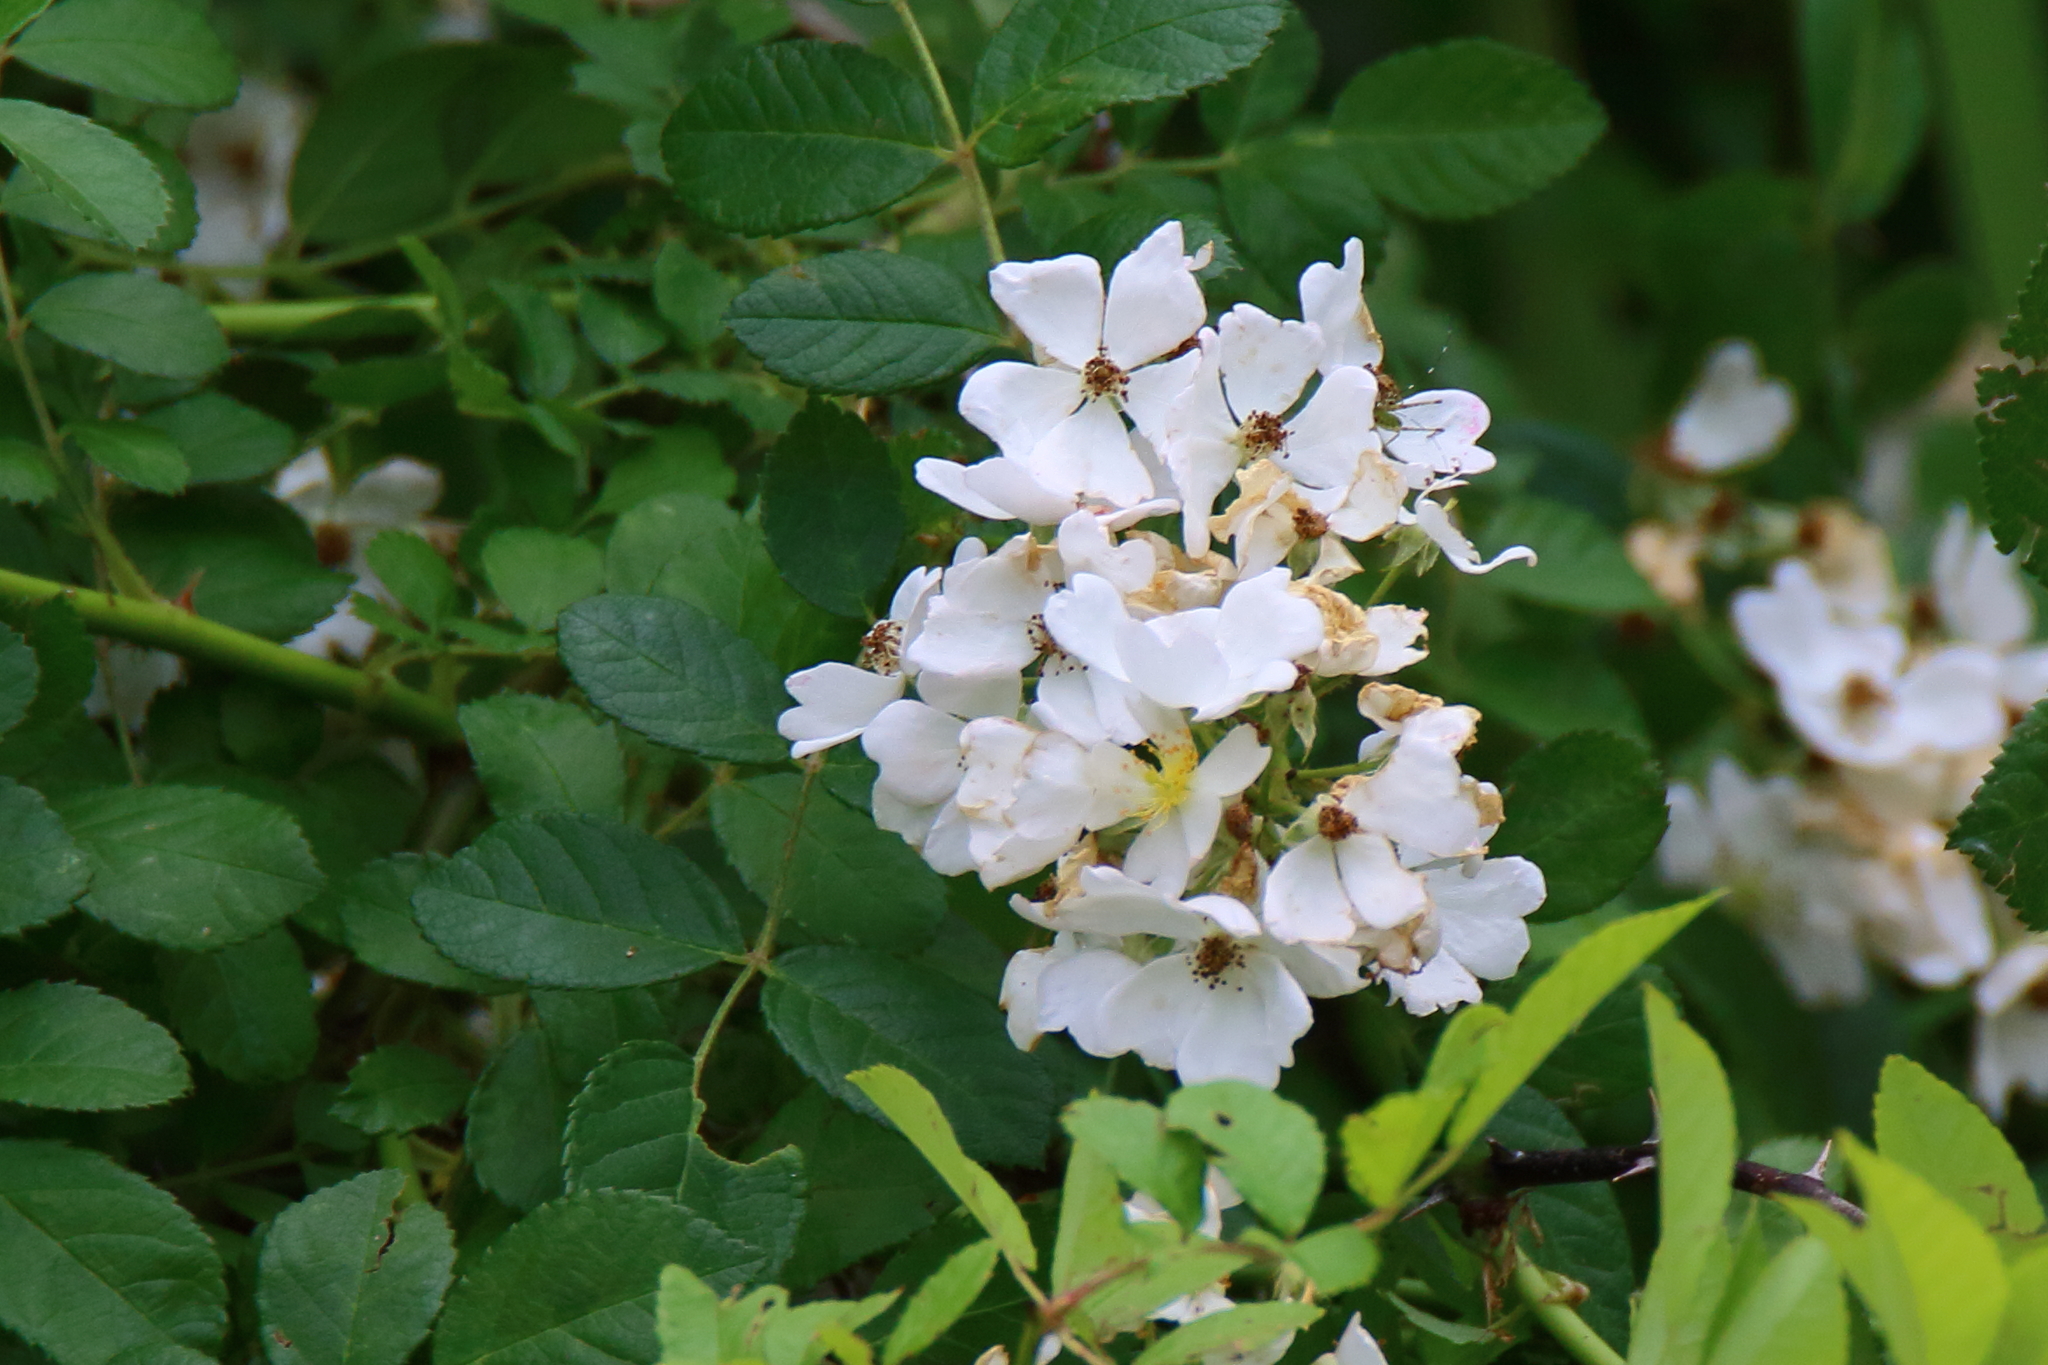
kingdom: Plantae
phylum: Tracheophyta
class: Magnoliopsida
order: Rosales
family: Rosaceae
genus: Rosa
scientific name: Rosa multiflora
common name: Multiflora rose
